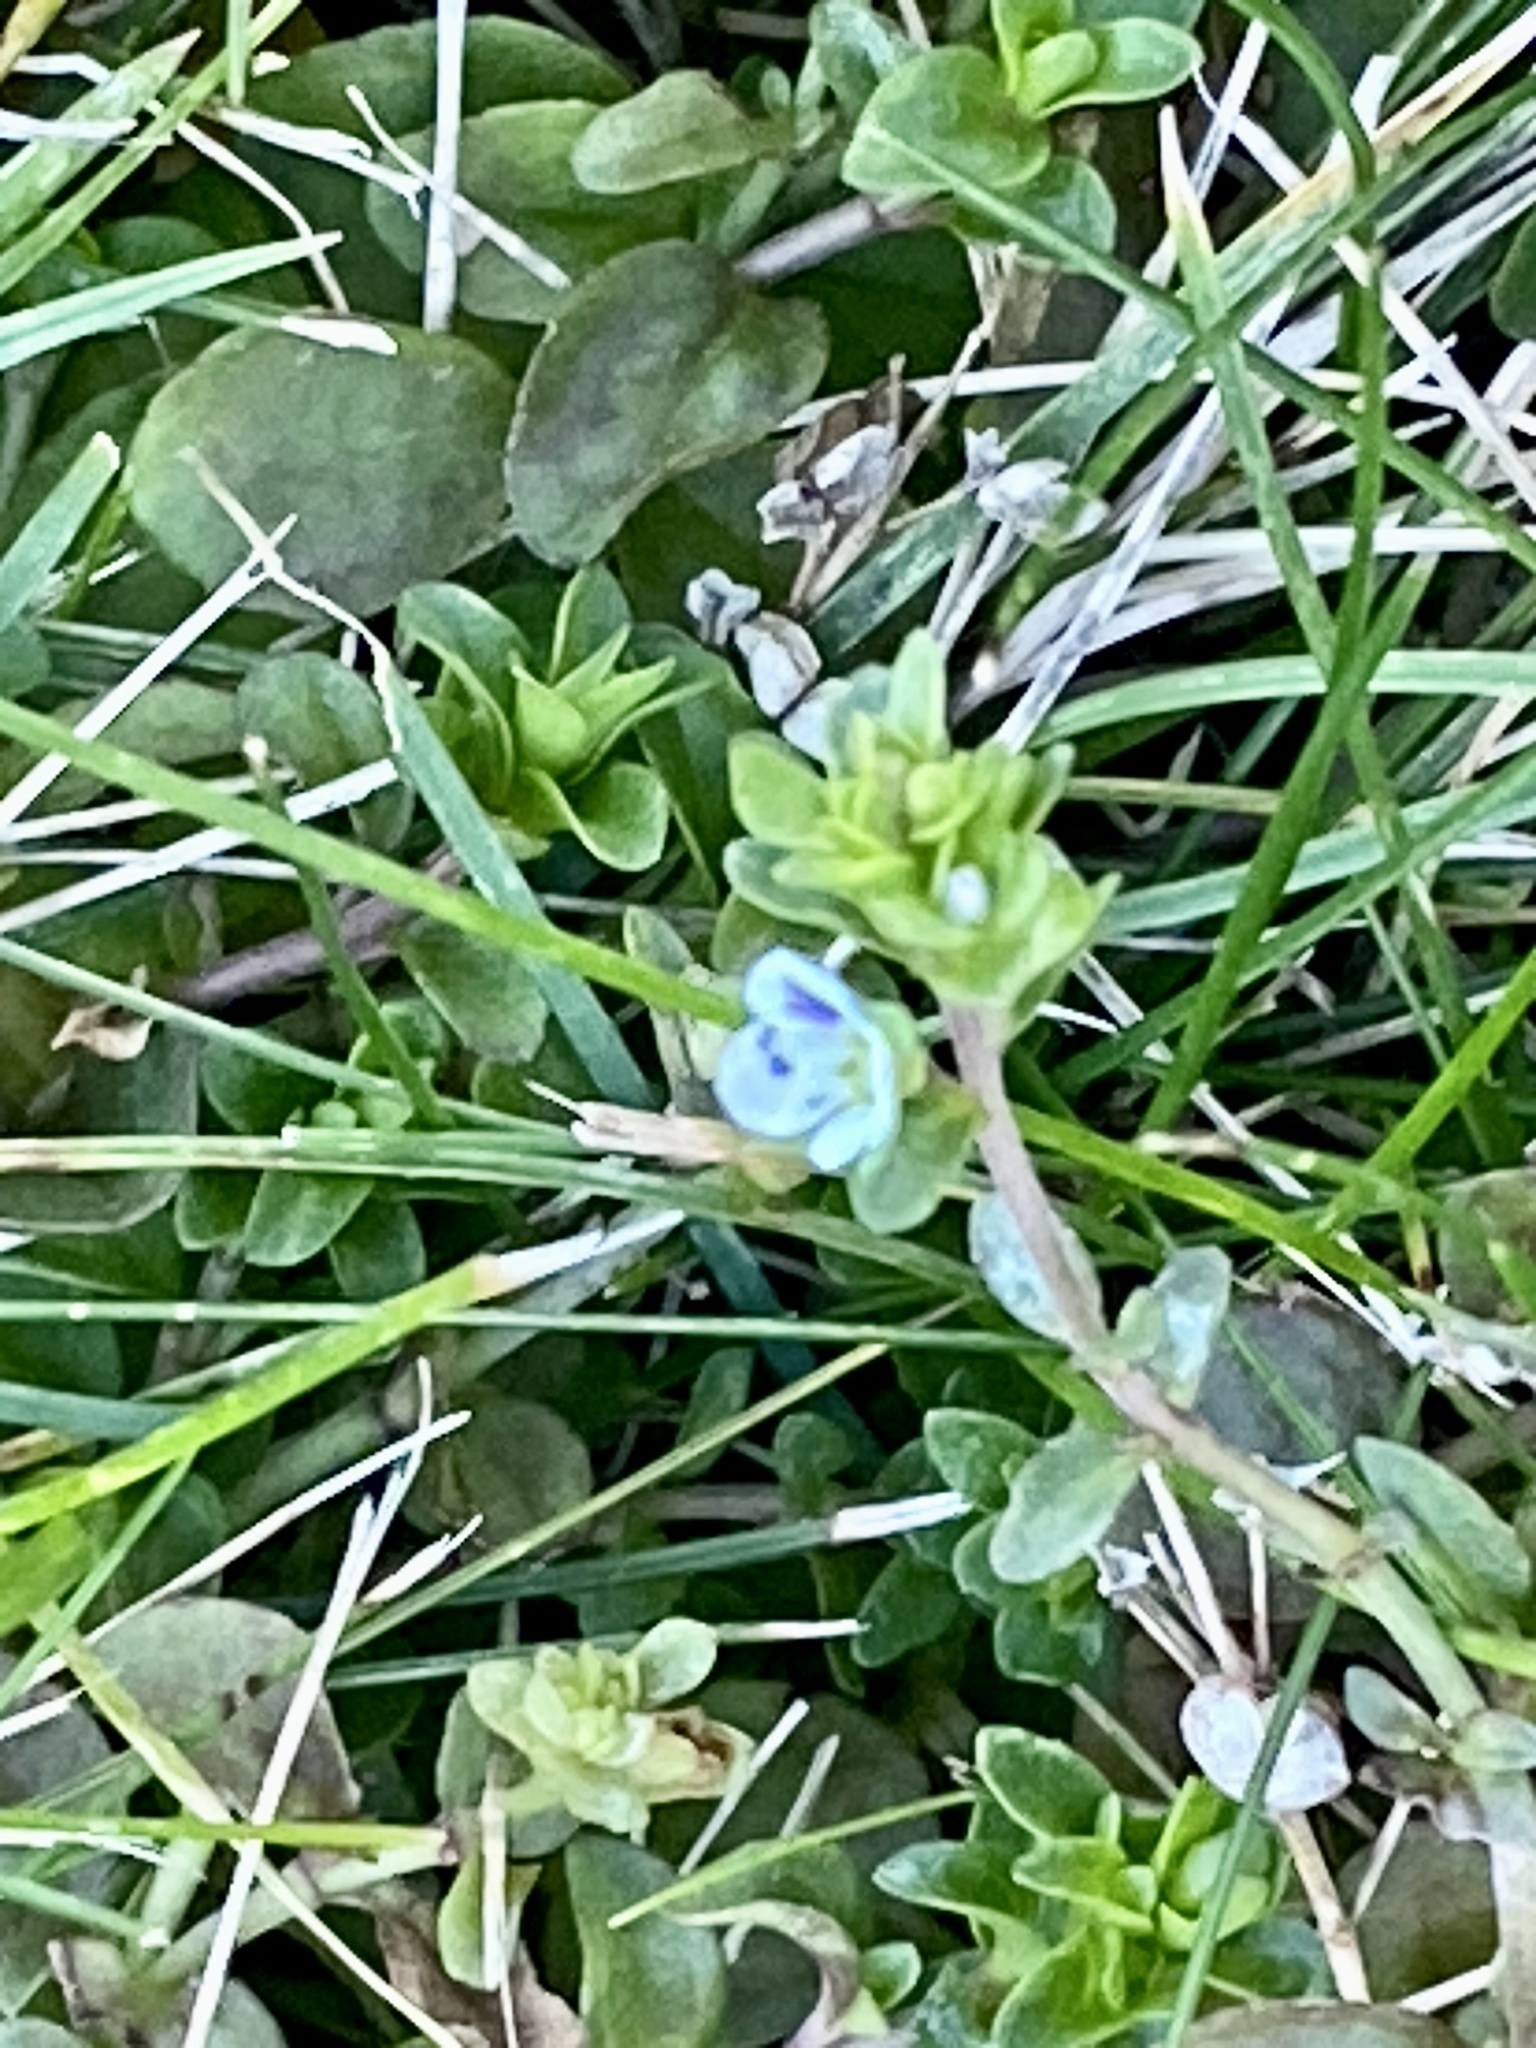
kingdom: Plantae
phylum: Tracheophyta
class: Magnoliopsida
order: Lamiales
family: Plantaginaceae
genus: Veronica
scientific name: Veronica serpyllifolia
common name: Thyme-leaved speedwell
